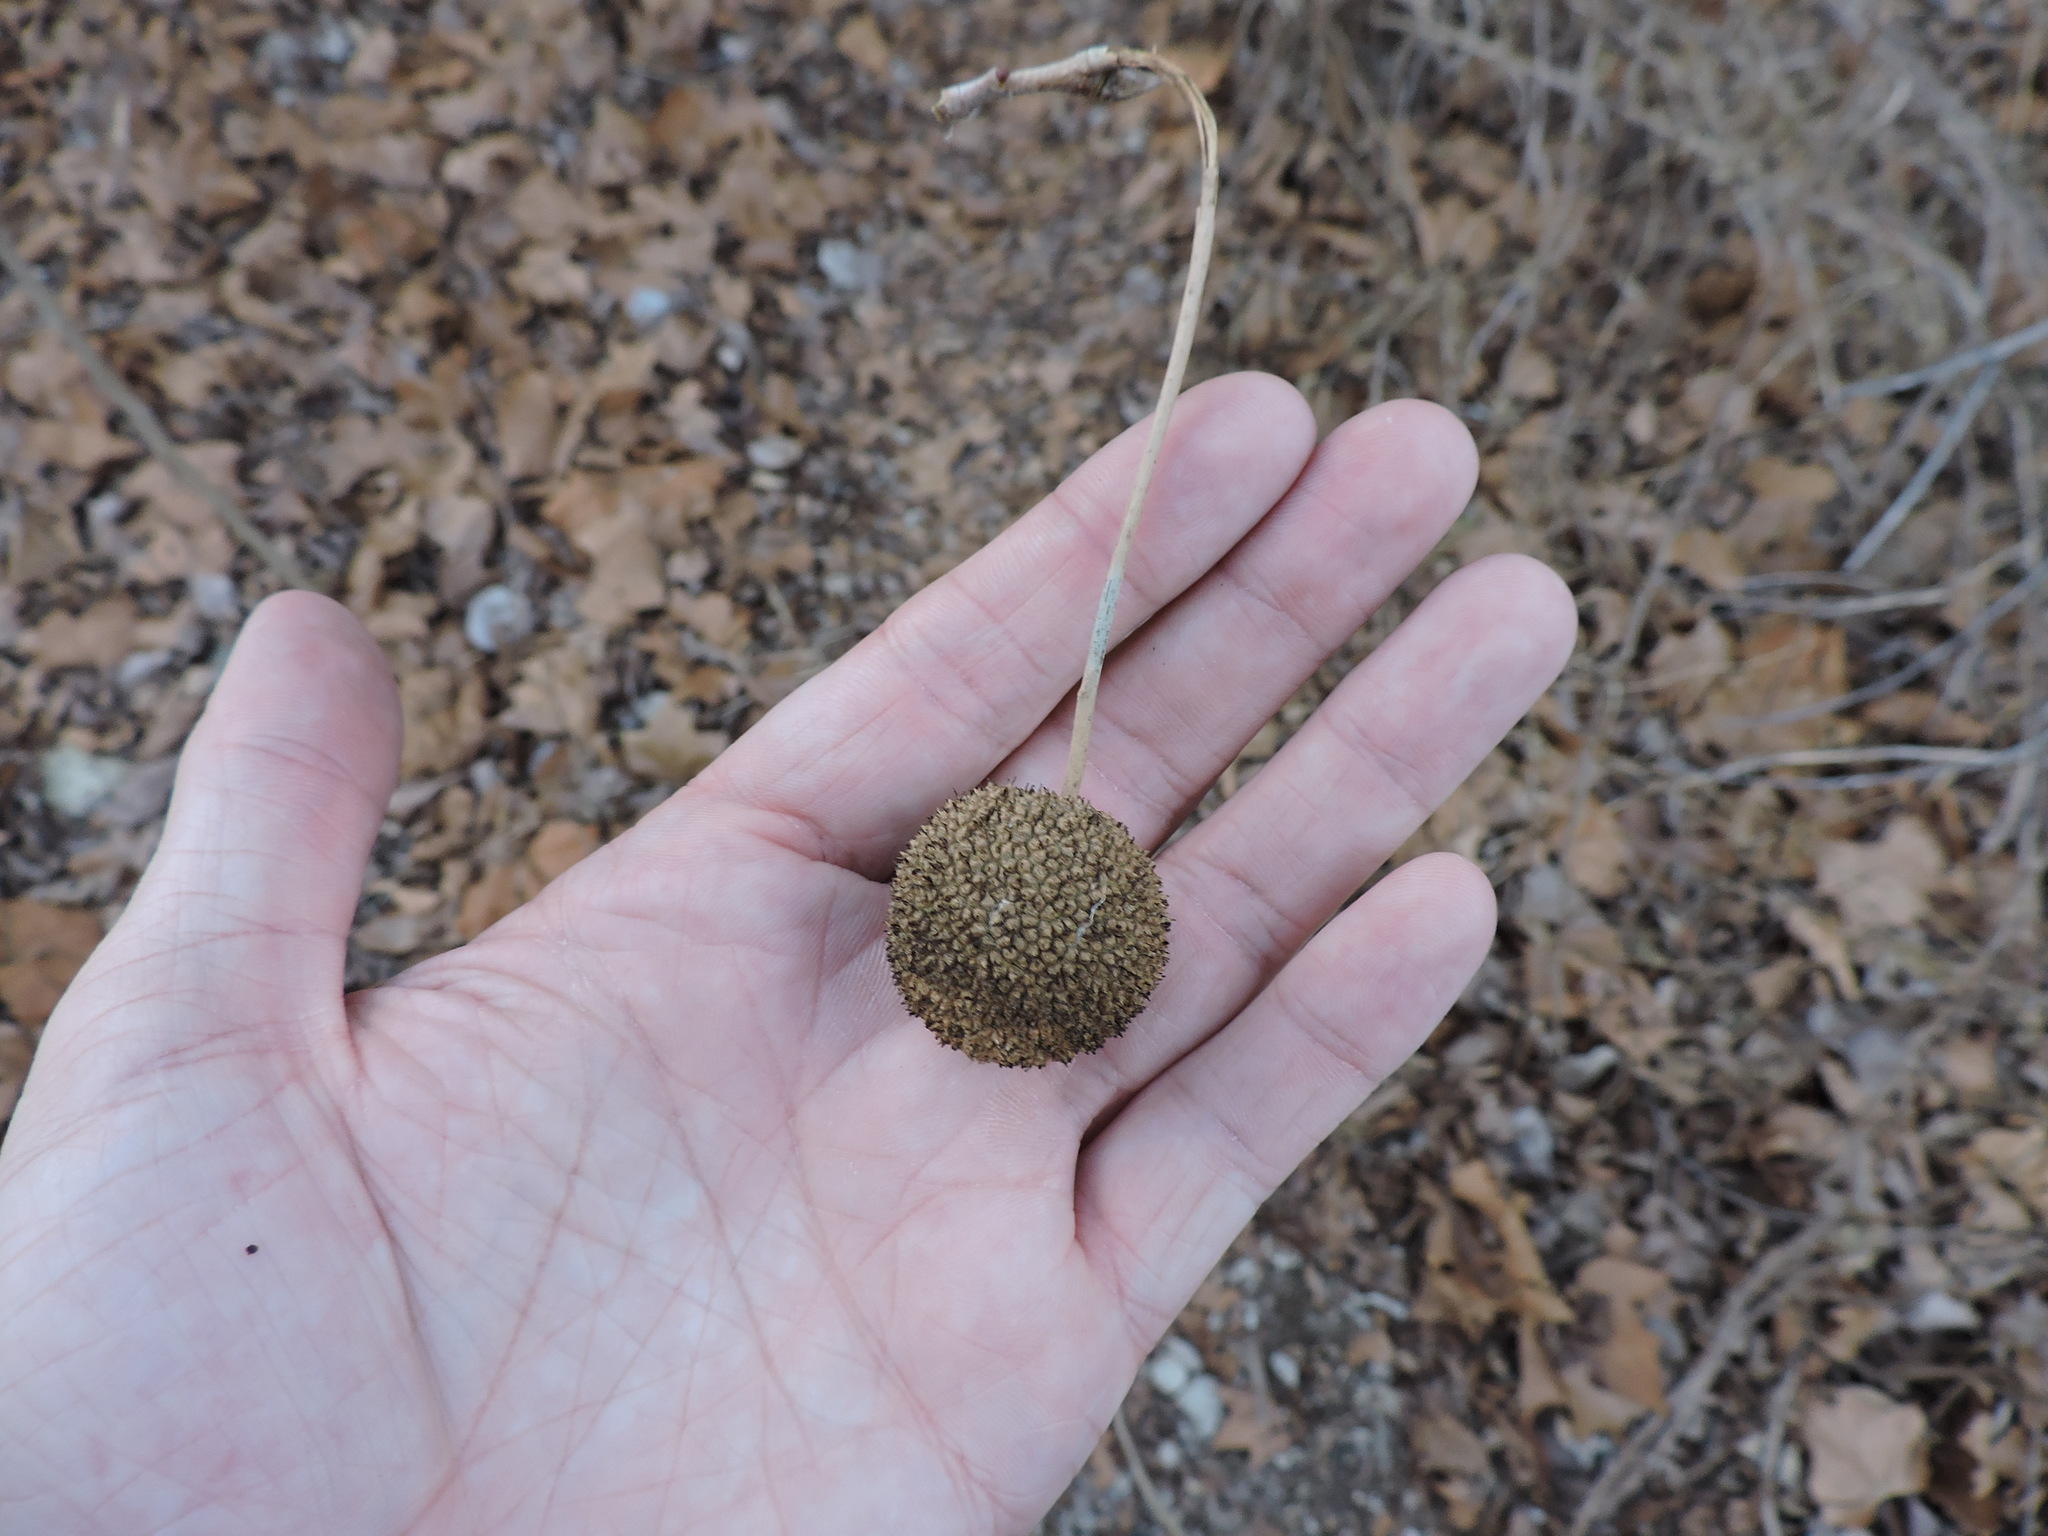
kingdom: Plantae
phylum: Tracheophyta
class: Magnoliopsida
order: Proteales
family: Platanaceae
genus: Platanus
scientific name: Platanus occidentalis
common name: American sycamore
